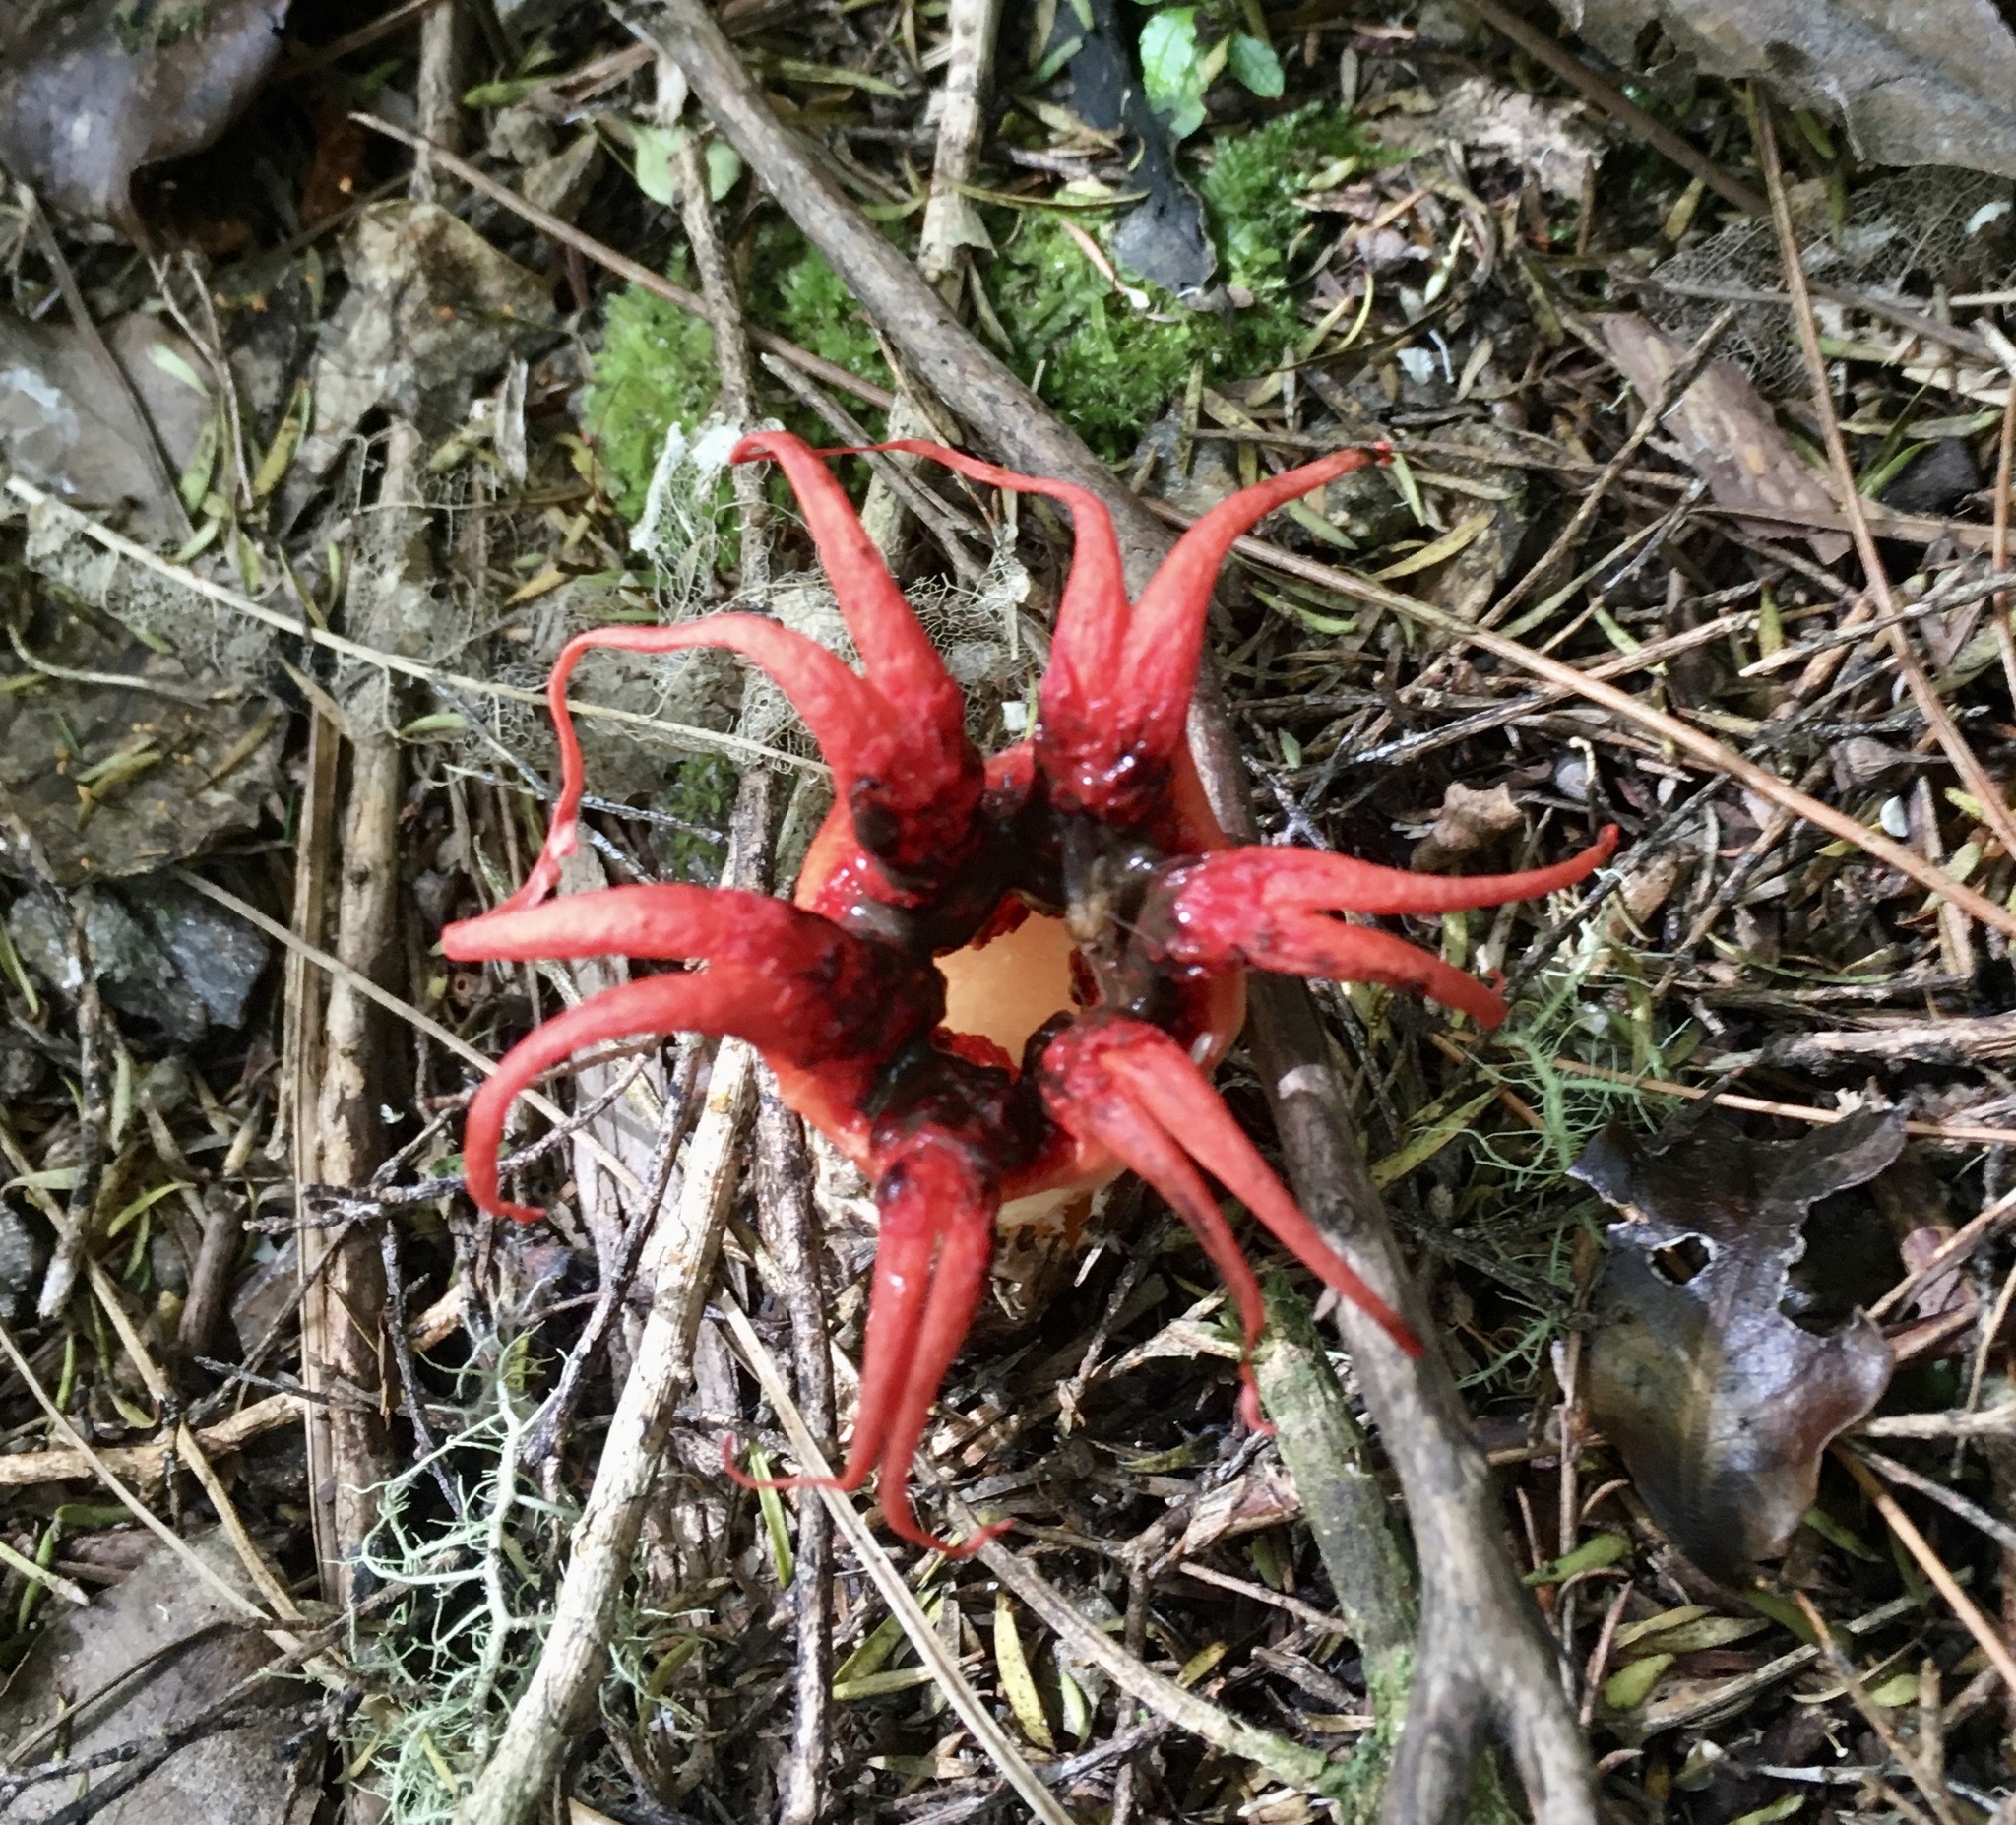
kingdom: Fungi
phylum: Basidiomycota
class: Agaricomycetes
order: Phallales
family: Phallaceae
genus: Aseroe
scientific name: Aseroe rubra
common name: Starfish fungus
